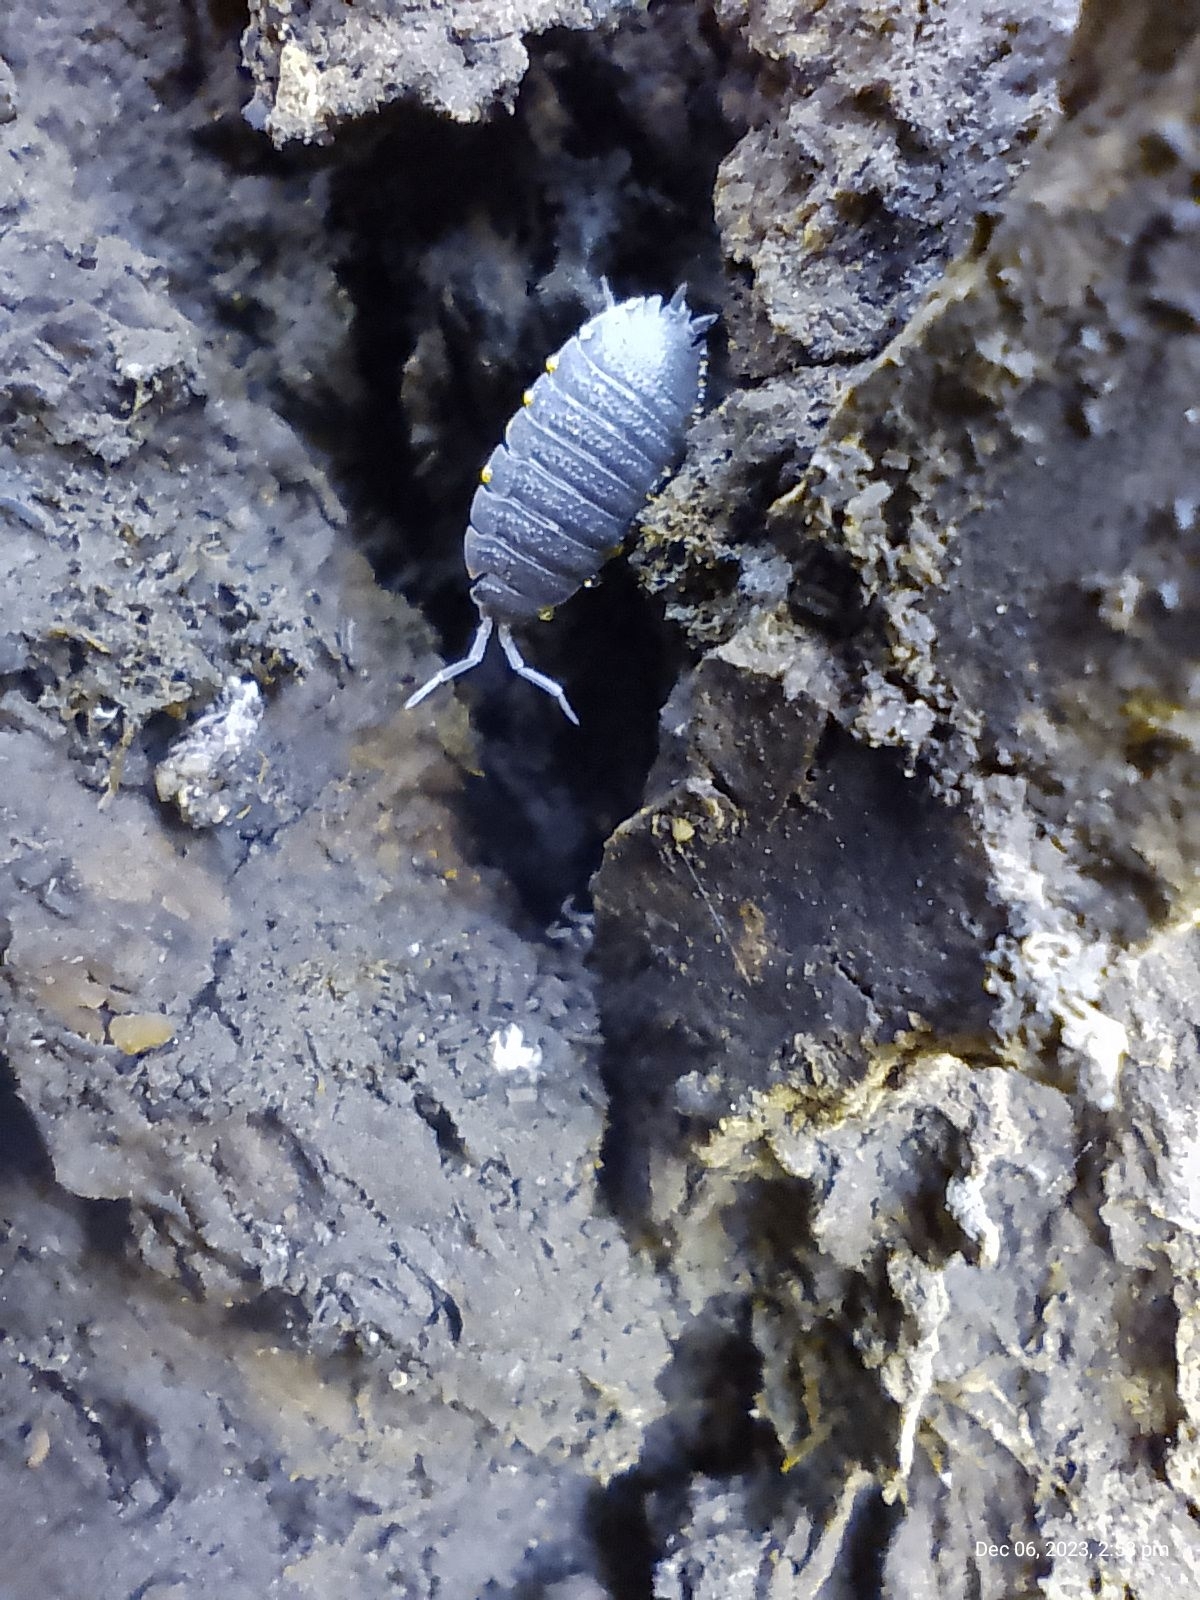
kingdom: Animalia
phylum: Arthropoda
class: Malacostraca
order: Isopoda
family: Porcellionidae
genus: Porcellio
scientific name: Porcellio scaber
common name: Common rough woodlouse
